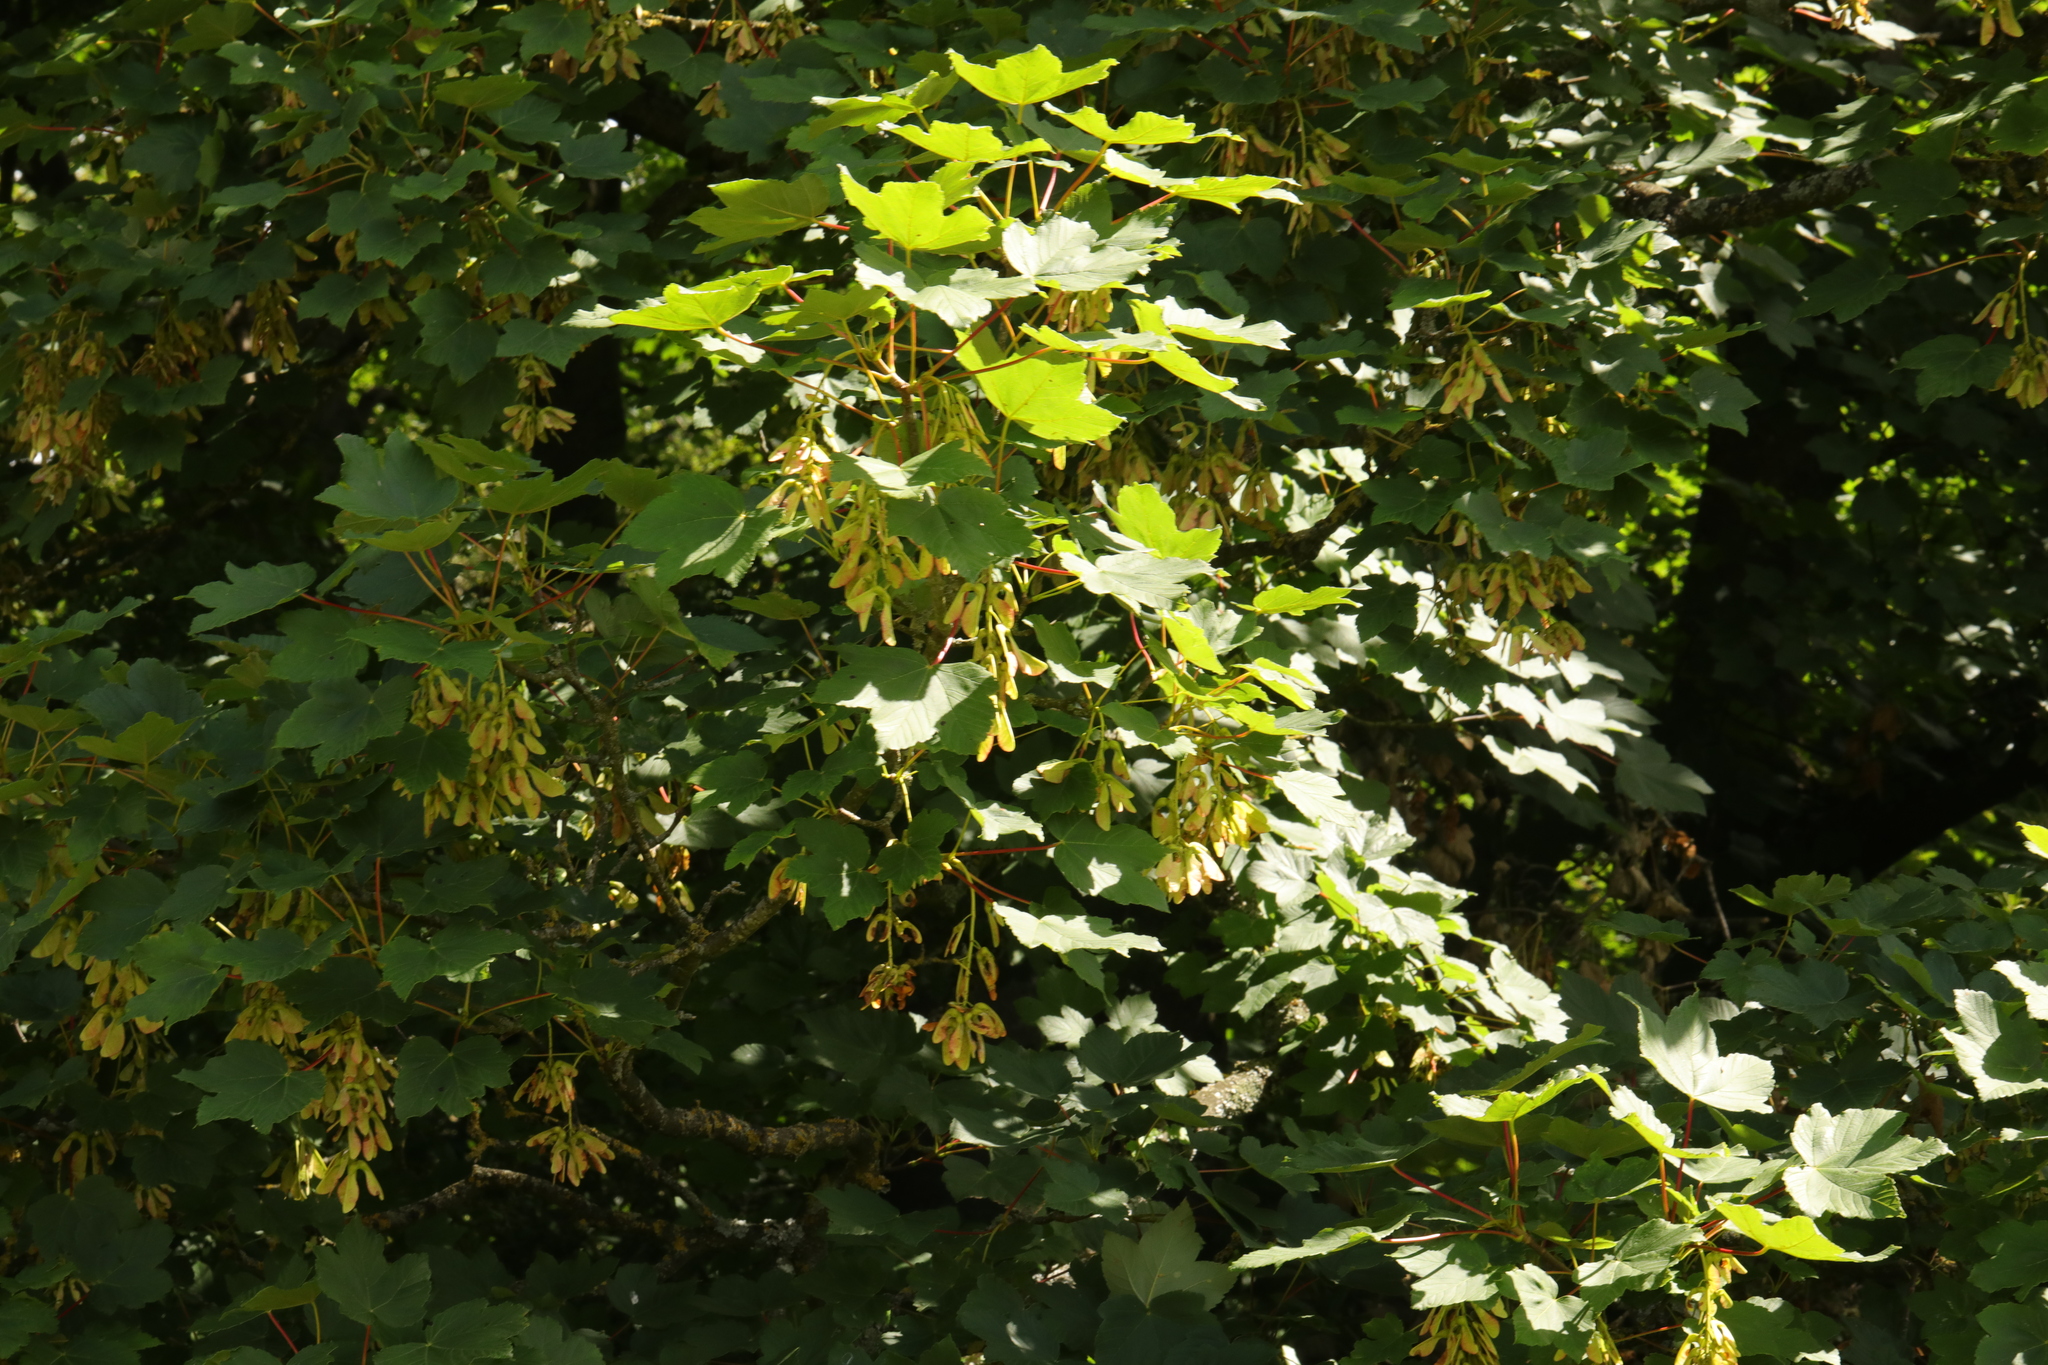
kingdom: Plantae
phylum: Tracheophyta
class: Magnoliopsida
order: Sapindales
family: Sapindaceae
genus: Acer
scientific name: Acer pseudoplatanus
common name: Sycamore
